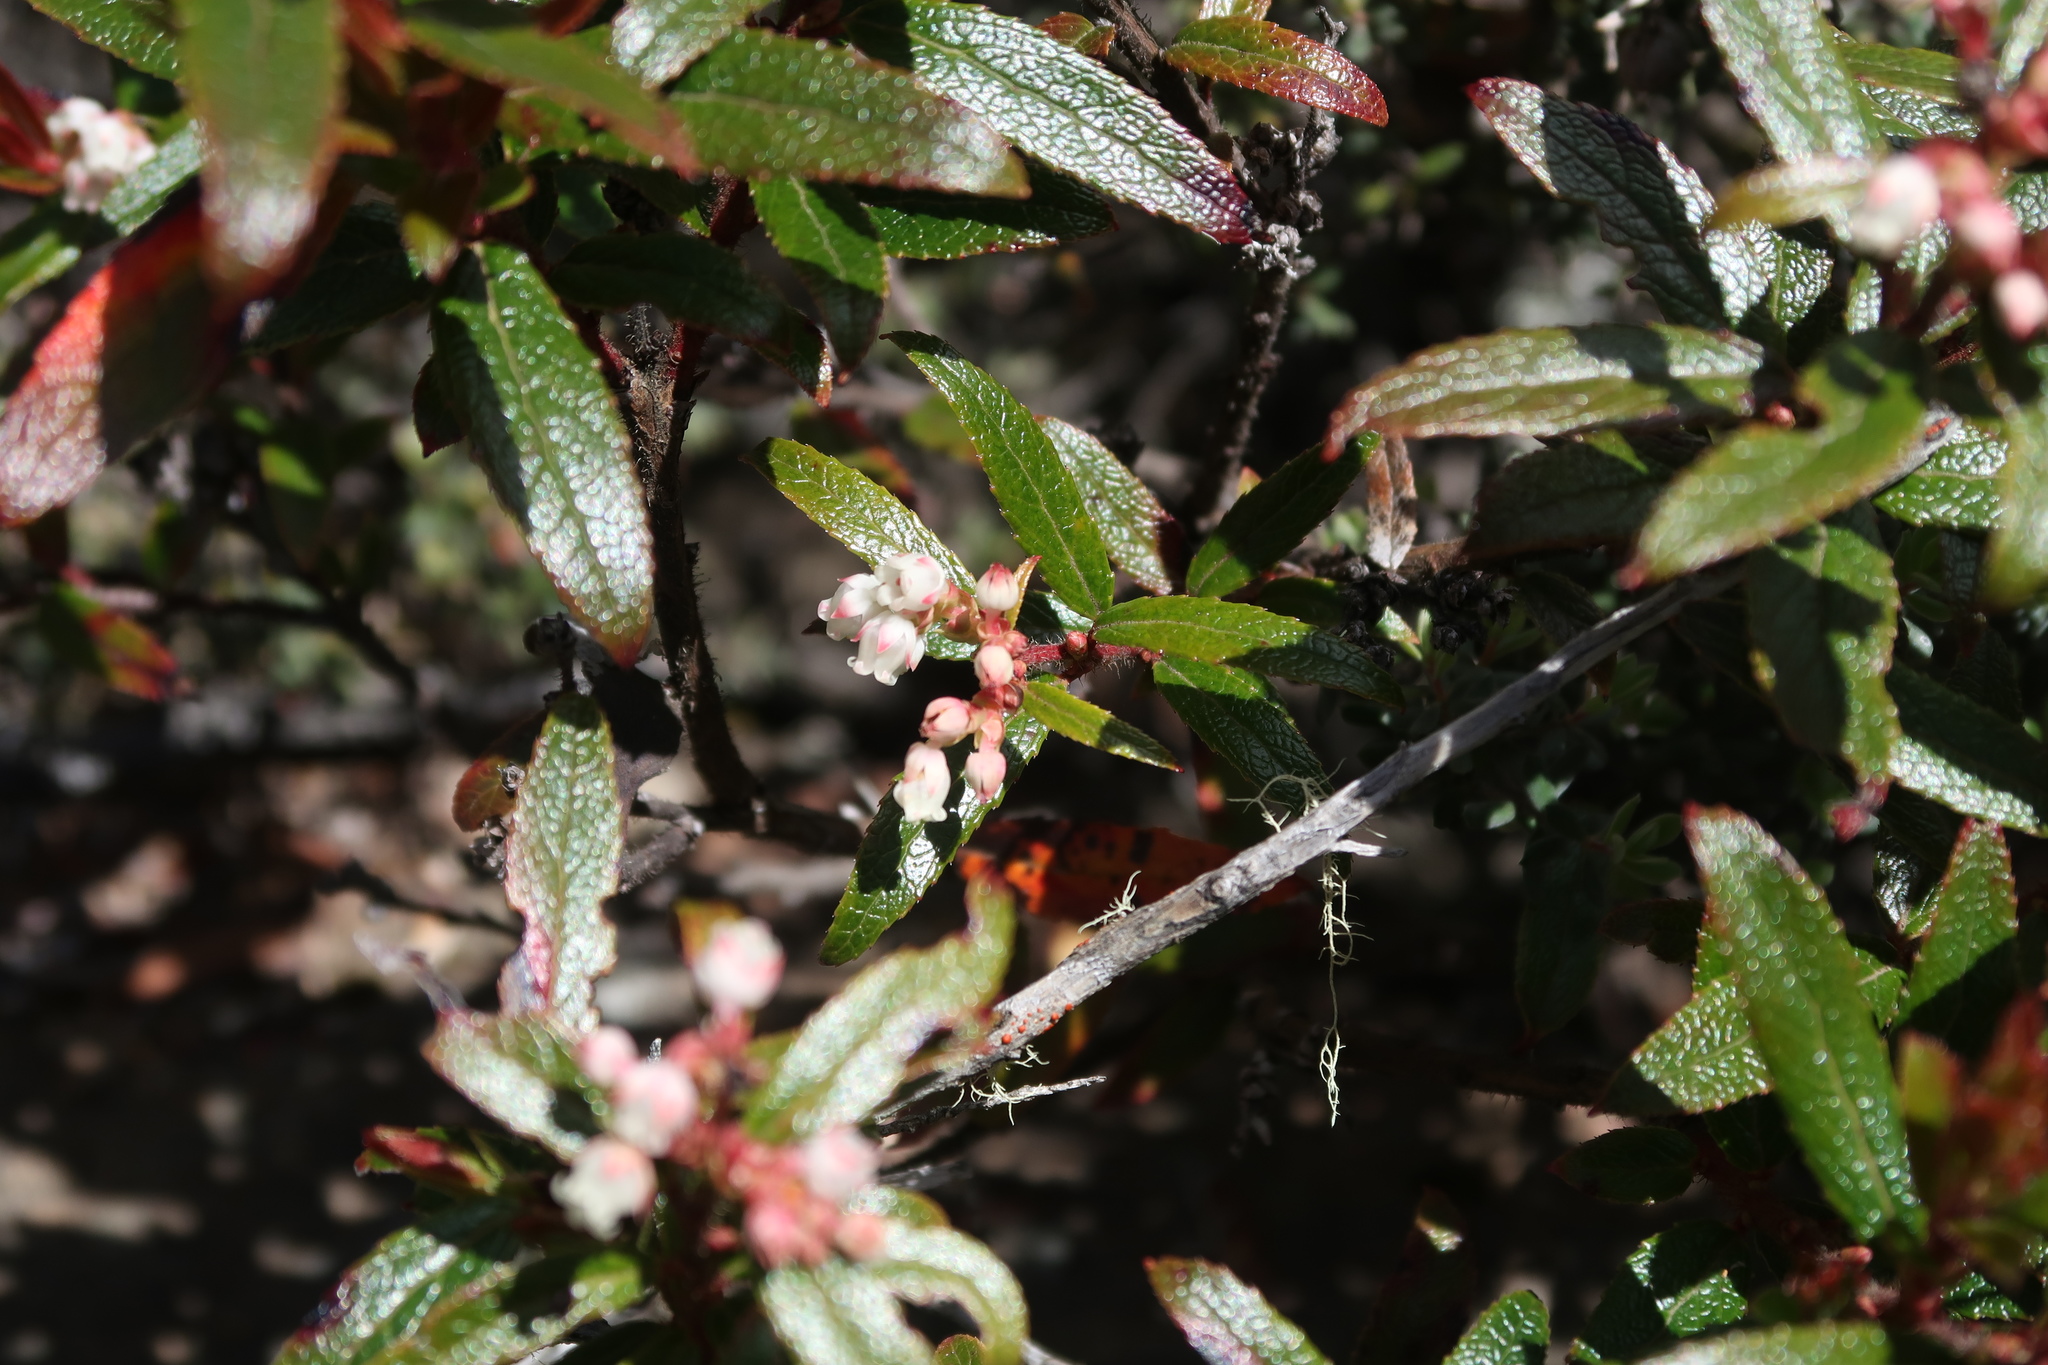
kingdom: Plantae
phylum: Tracheophyta
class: Magnoliopsida
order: Ericales
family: Ericaceae
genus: Gaultheria
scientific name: Gaultheria hispida
